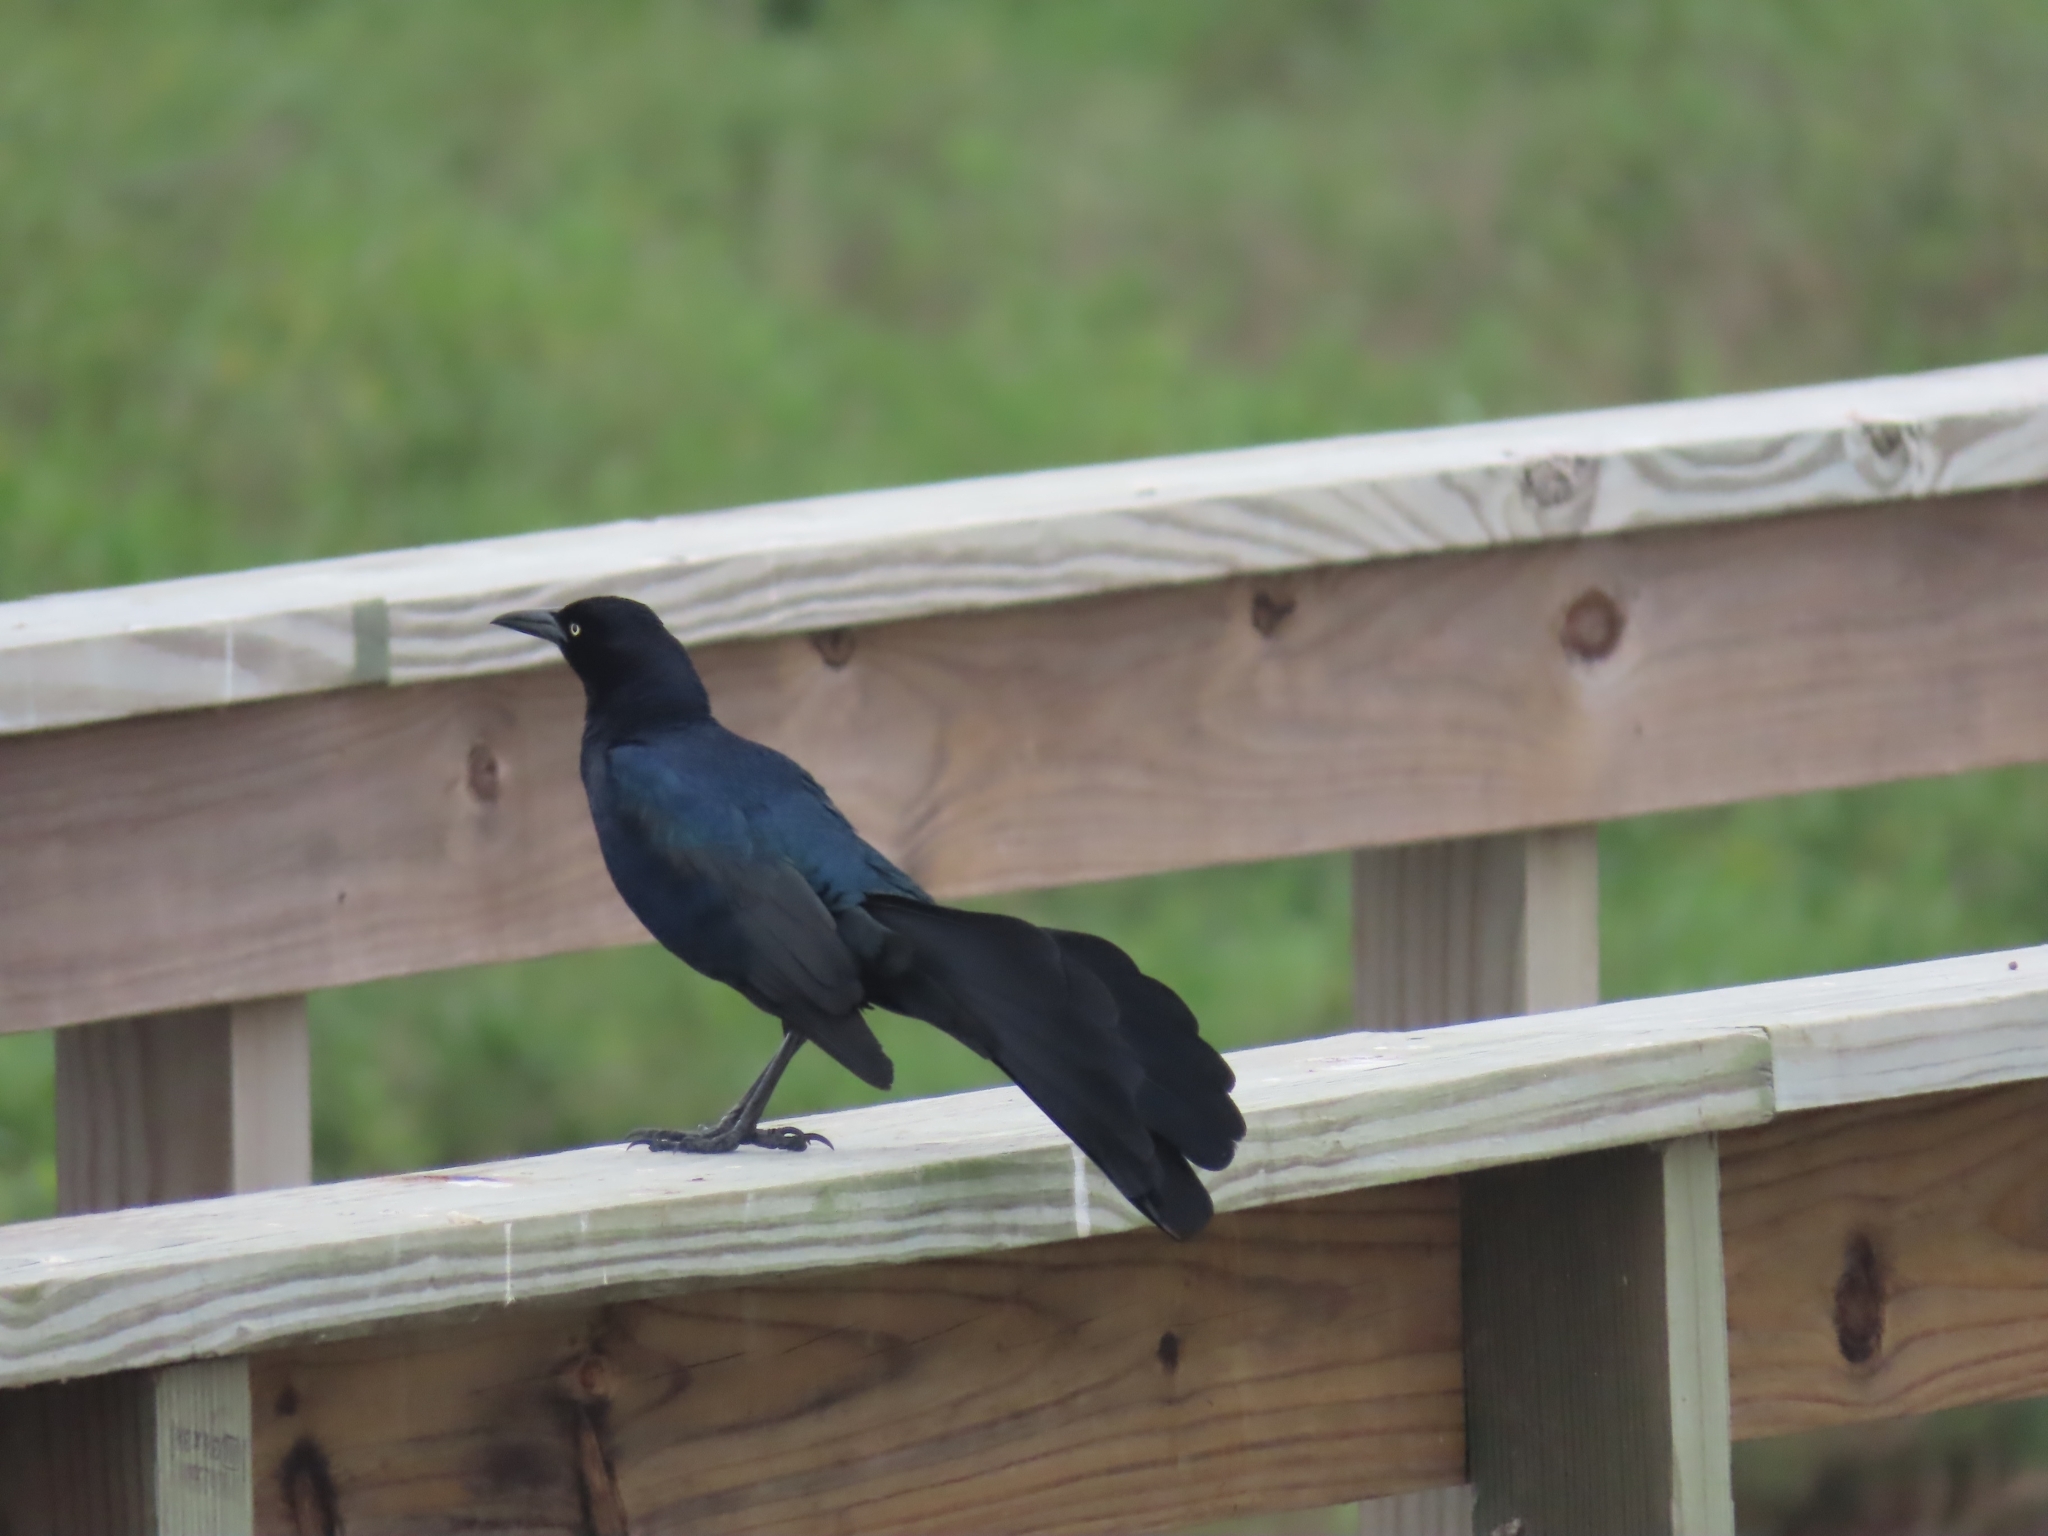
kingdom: Animalia
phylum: Chordata
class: Aves
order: Passeriformes
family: Icteridae
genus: Quiscalus
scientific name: Quiscalus mexicanus
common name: Great-tailed grackle
